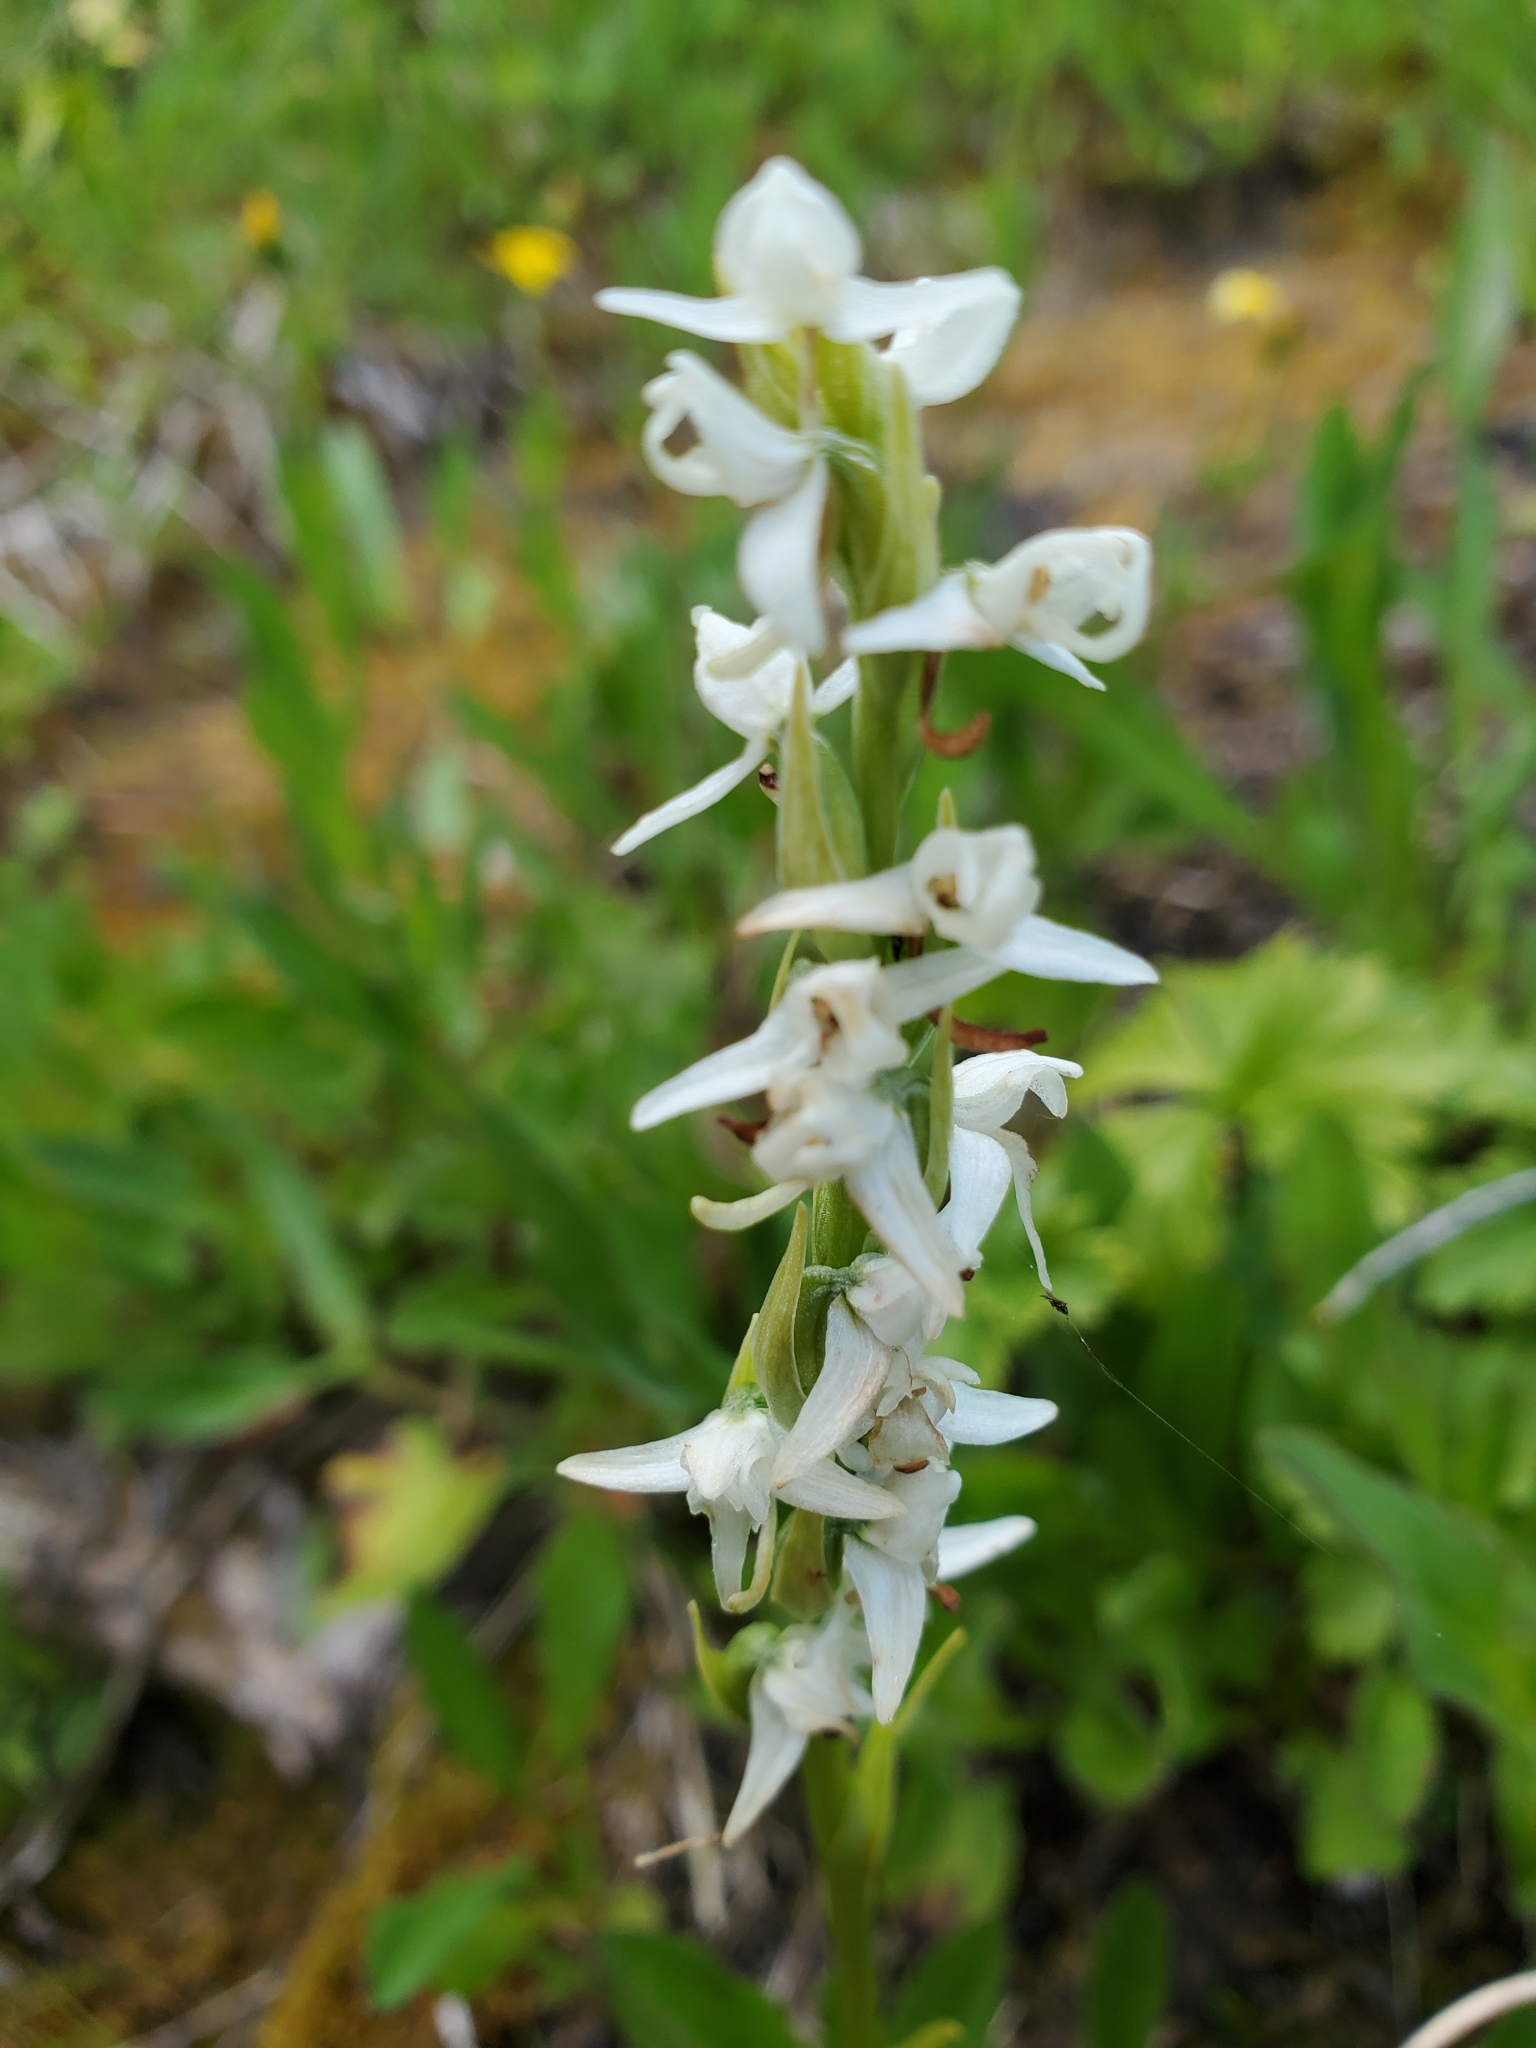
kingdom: Plantae
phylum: Tracheophyta
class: Liliopsida
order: Asparagales
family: Orchidaceae
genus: Platanthera
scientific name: Platanthera dilatata
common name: Bog candles
